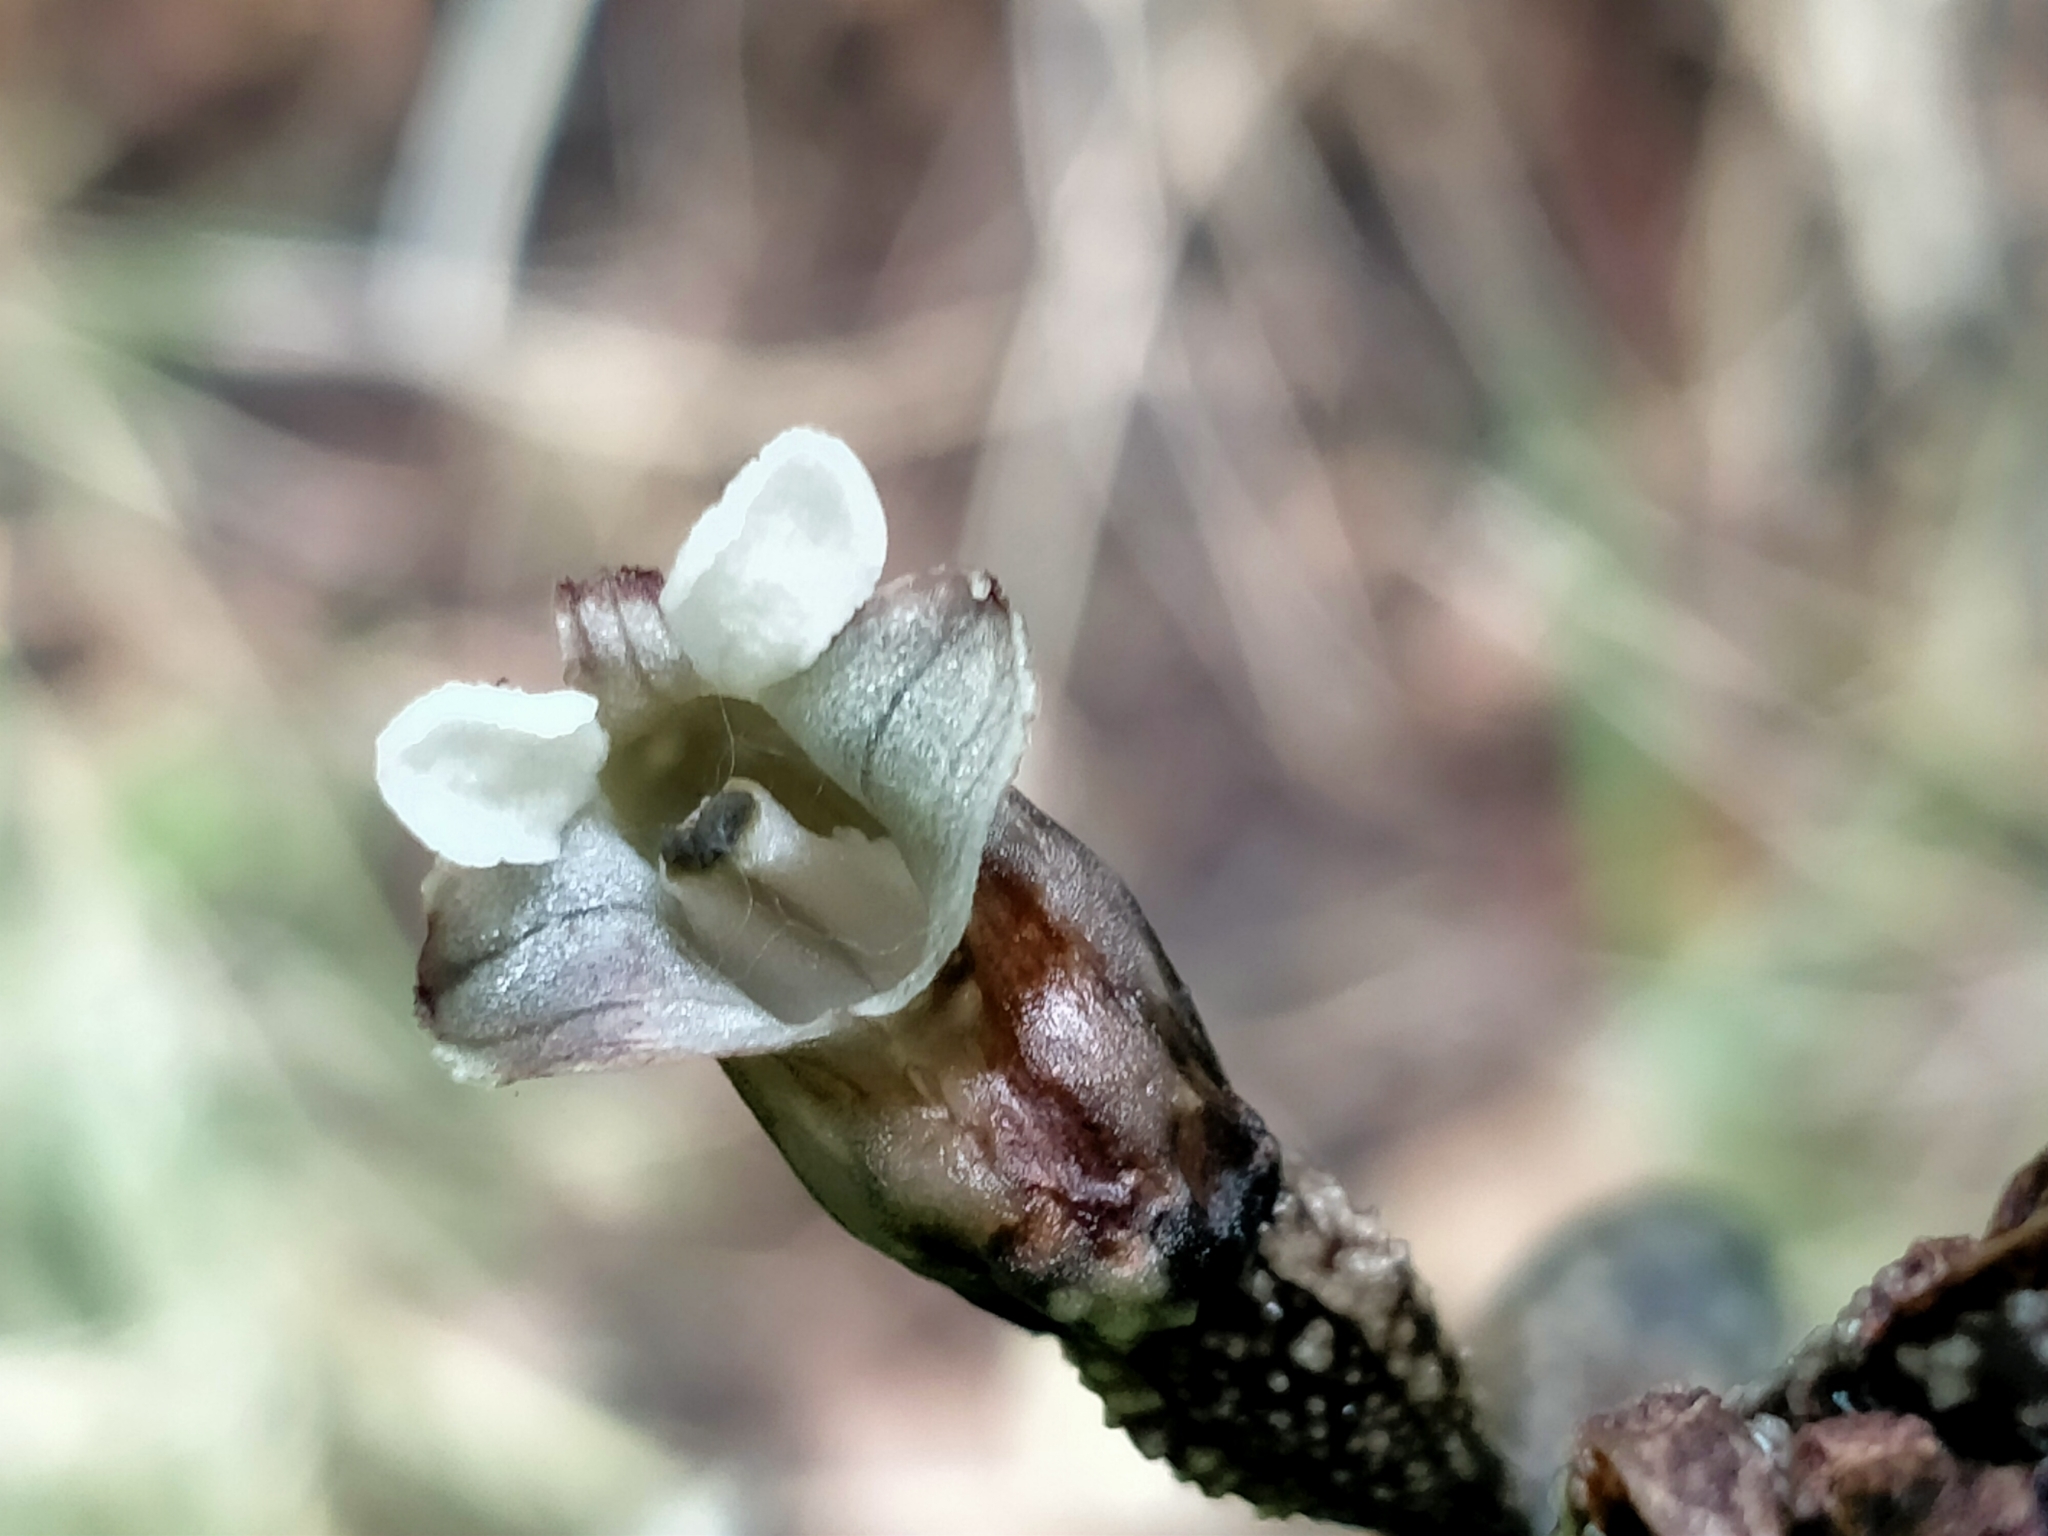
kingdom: Plantae
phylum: Tracheophyta
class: Liliopsida
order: Asparagales
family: Orchidaceae
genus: Gastrodia
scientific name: Gastrodia cunninghamii
